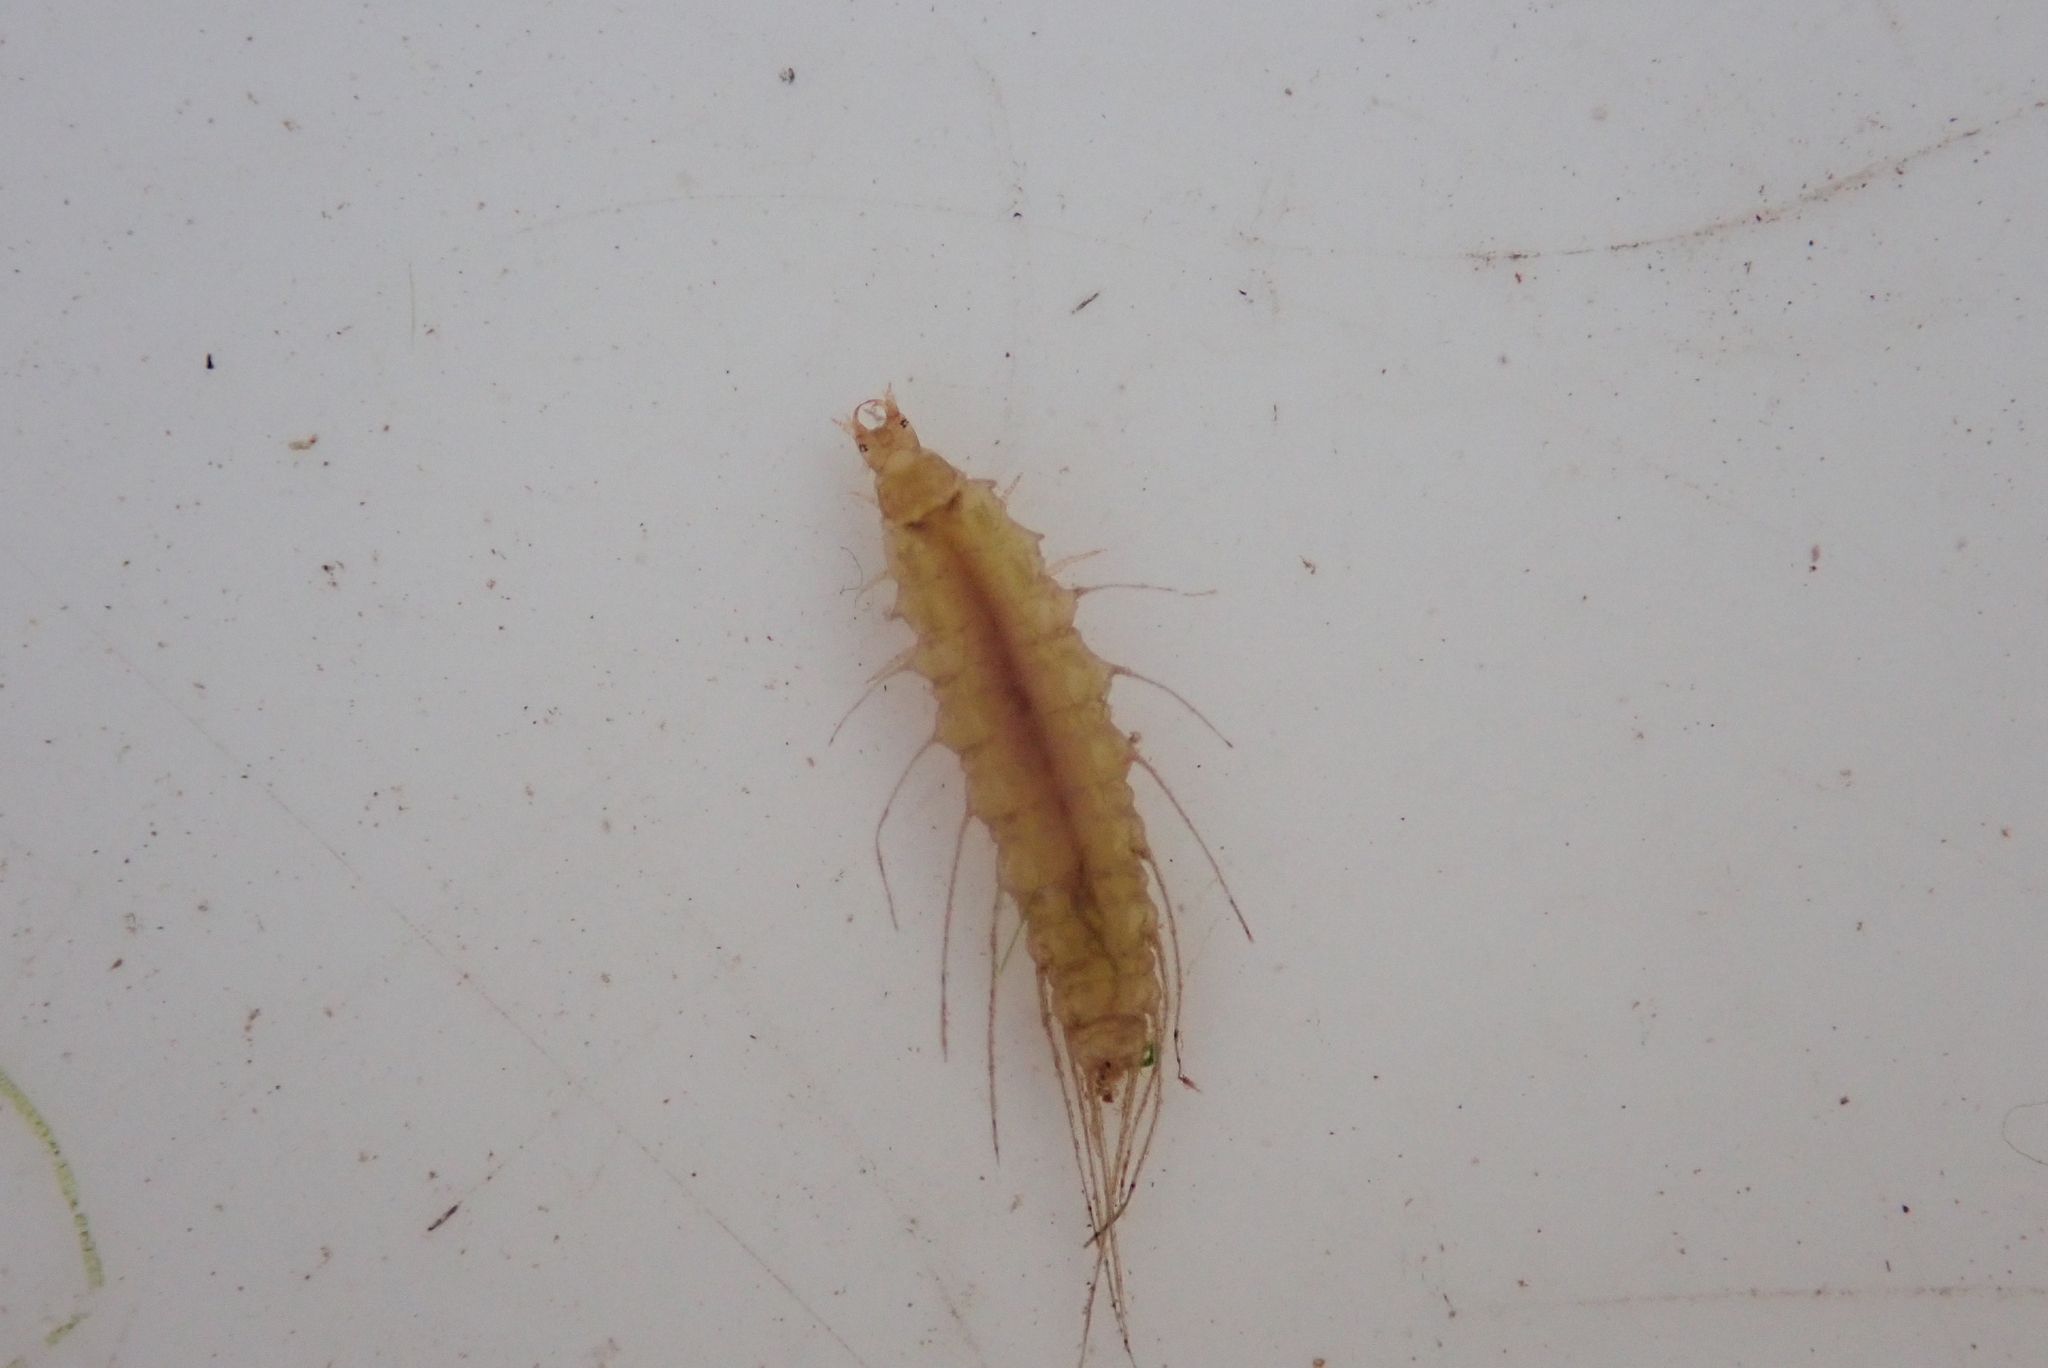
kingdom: Animalia
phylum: Arthropoda
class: Insecta
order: Coleoptera
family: Hydrophilidae
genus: Berosus
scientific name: Berosus
